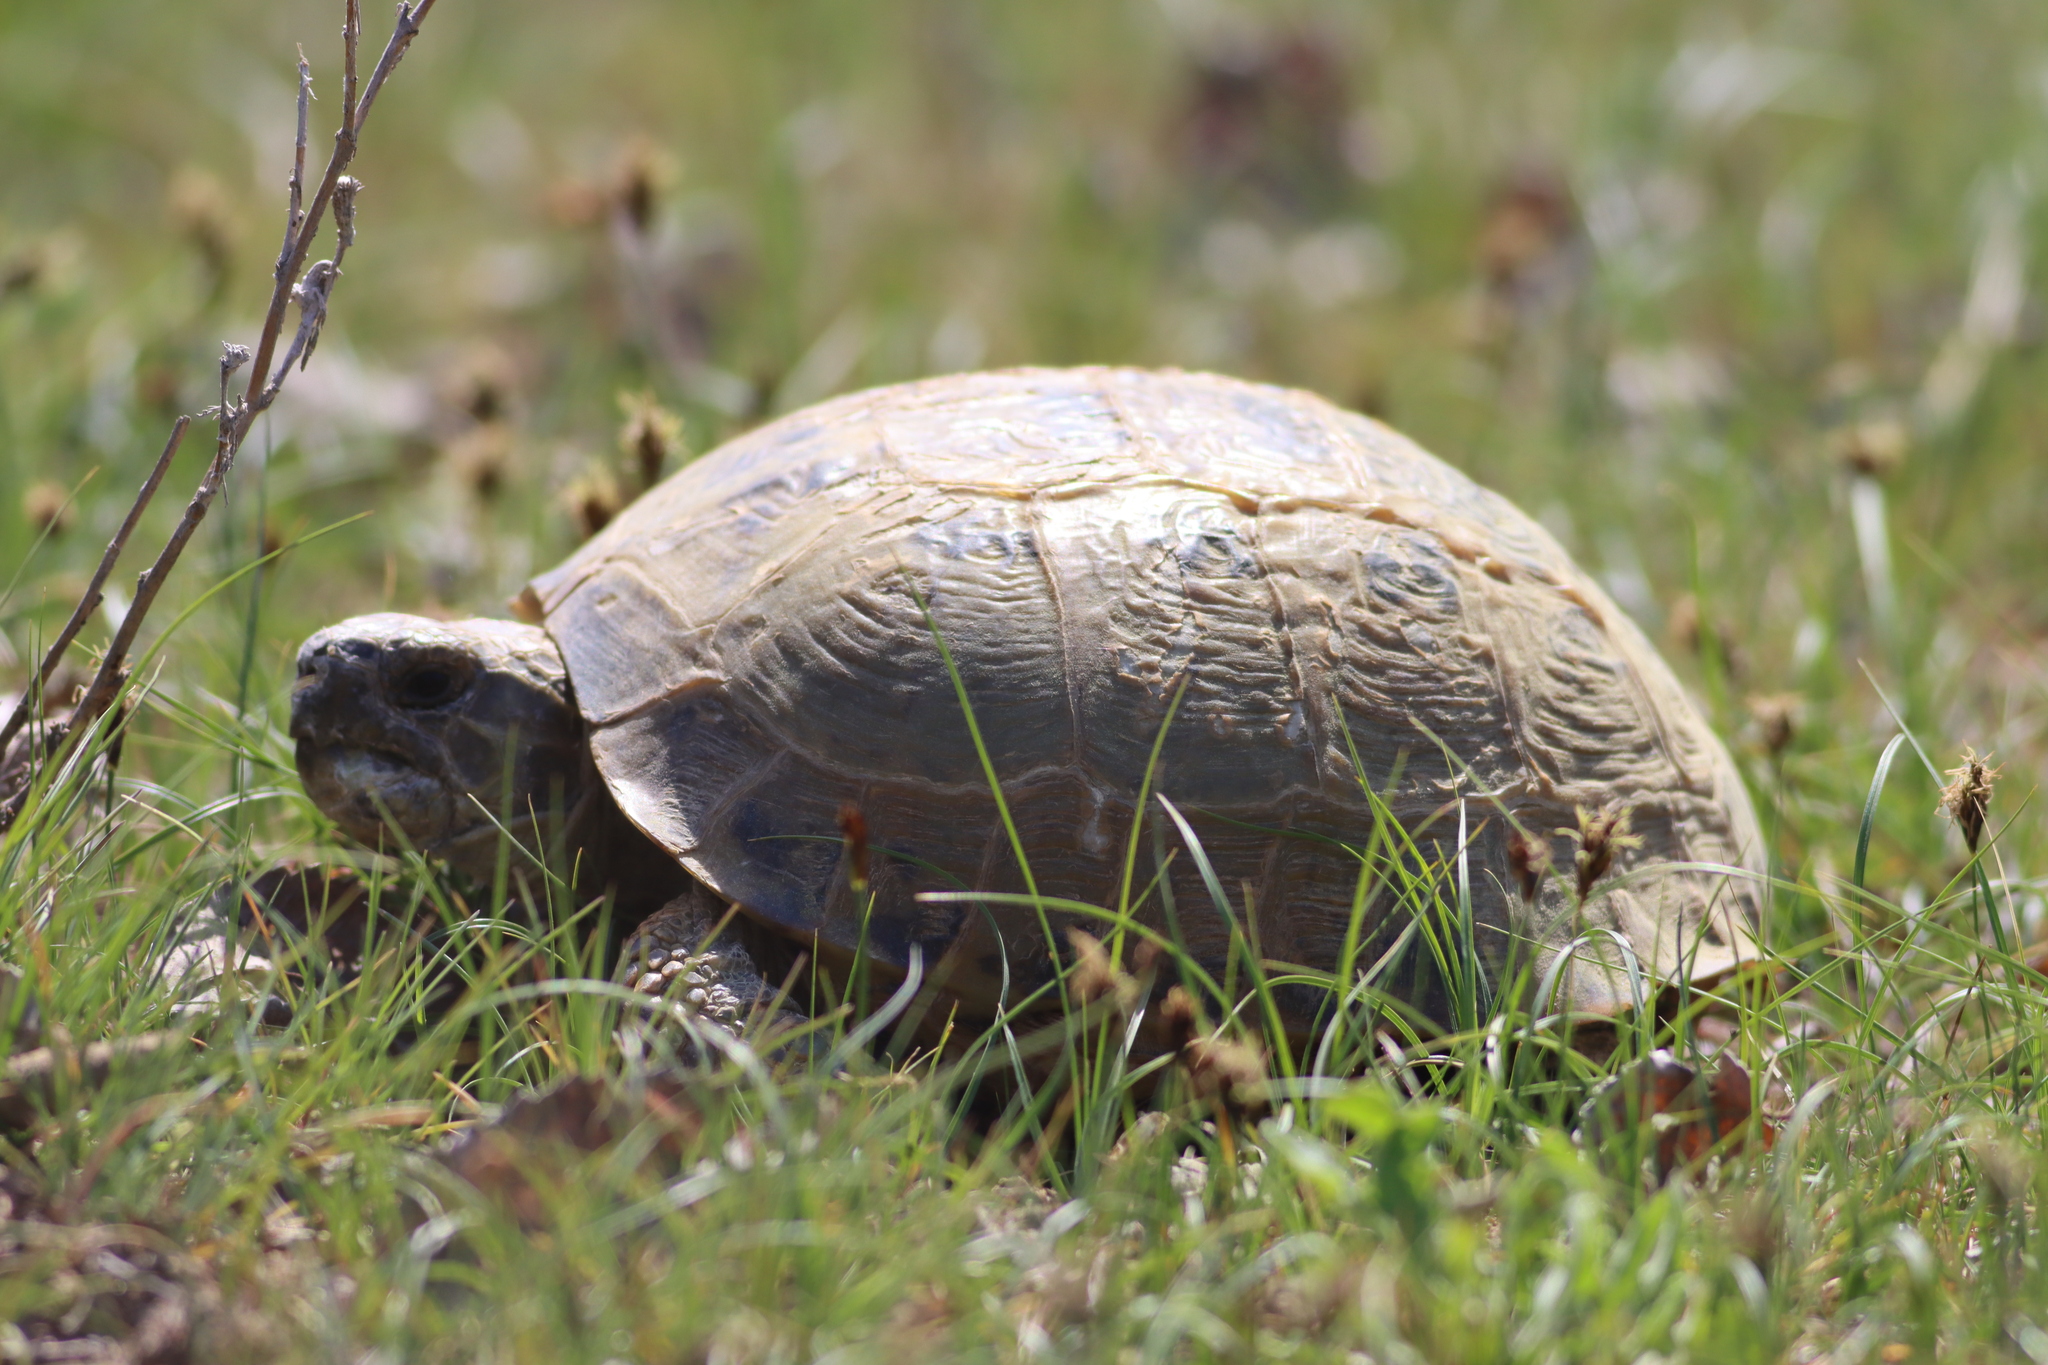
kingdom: Animalia
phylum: Chordata
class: Testudines
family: Testudinidae
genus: Testudo
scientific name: Testudo horsfieldii
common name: Central asia tortoise
